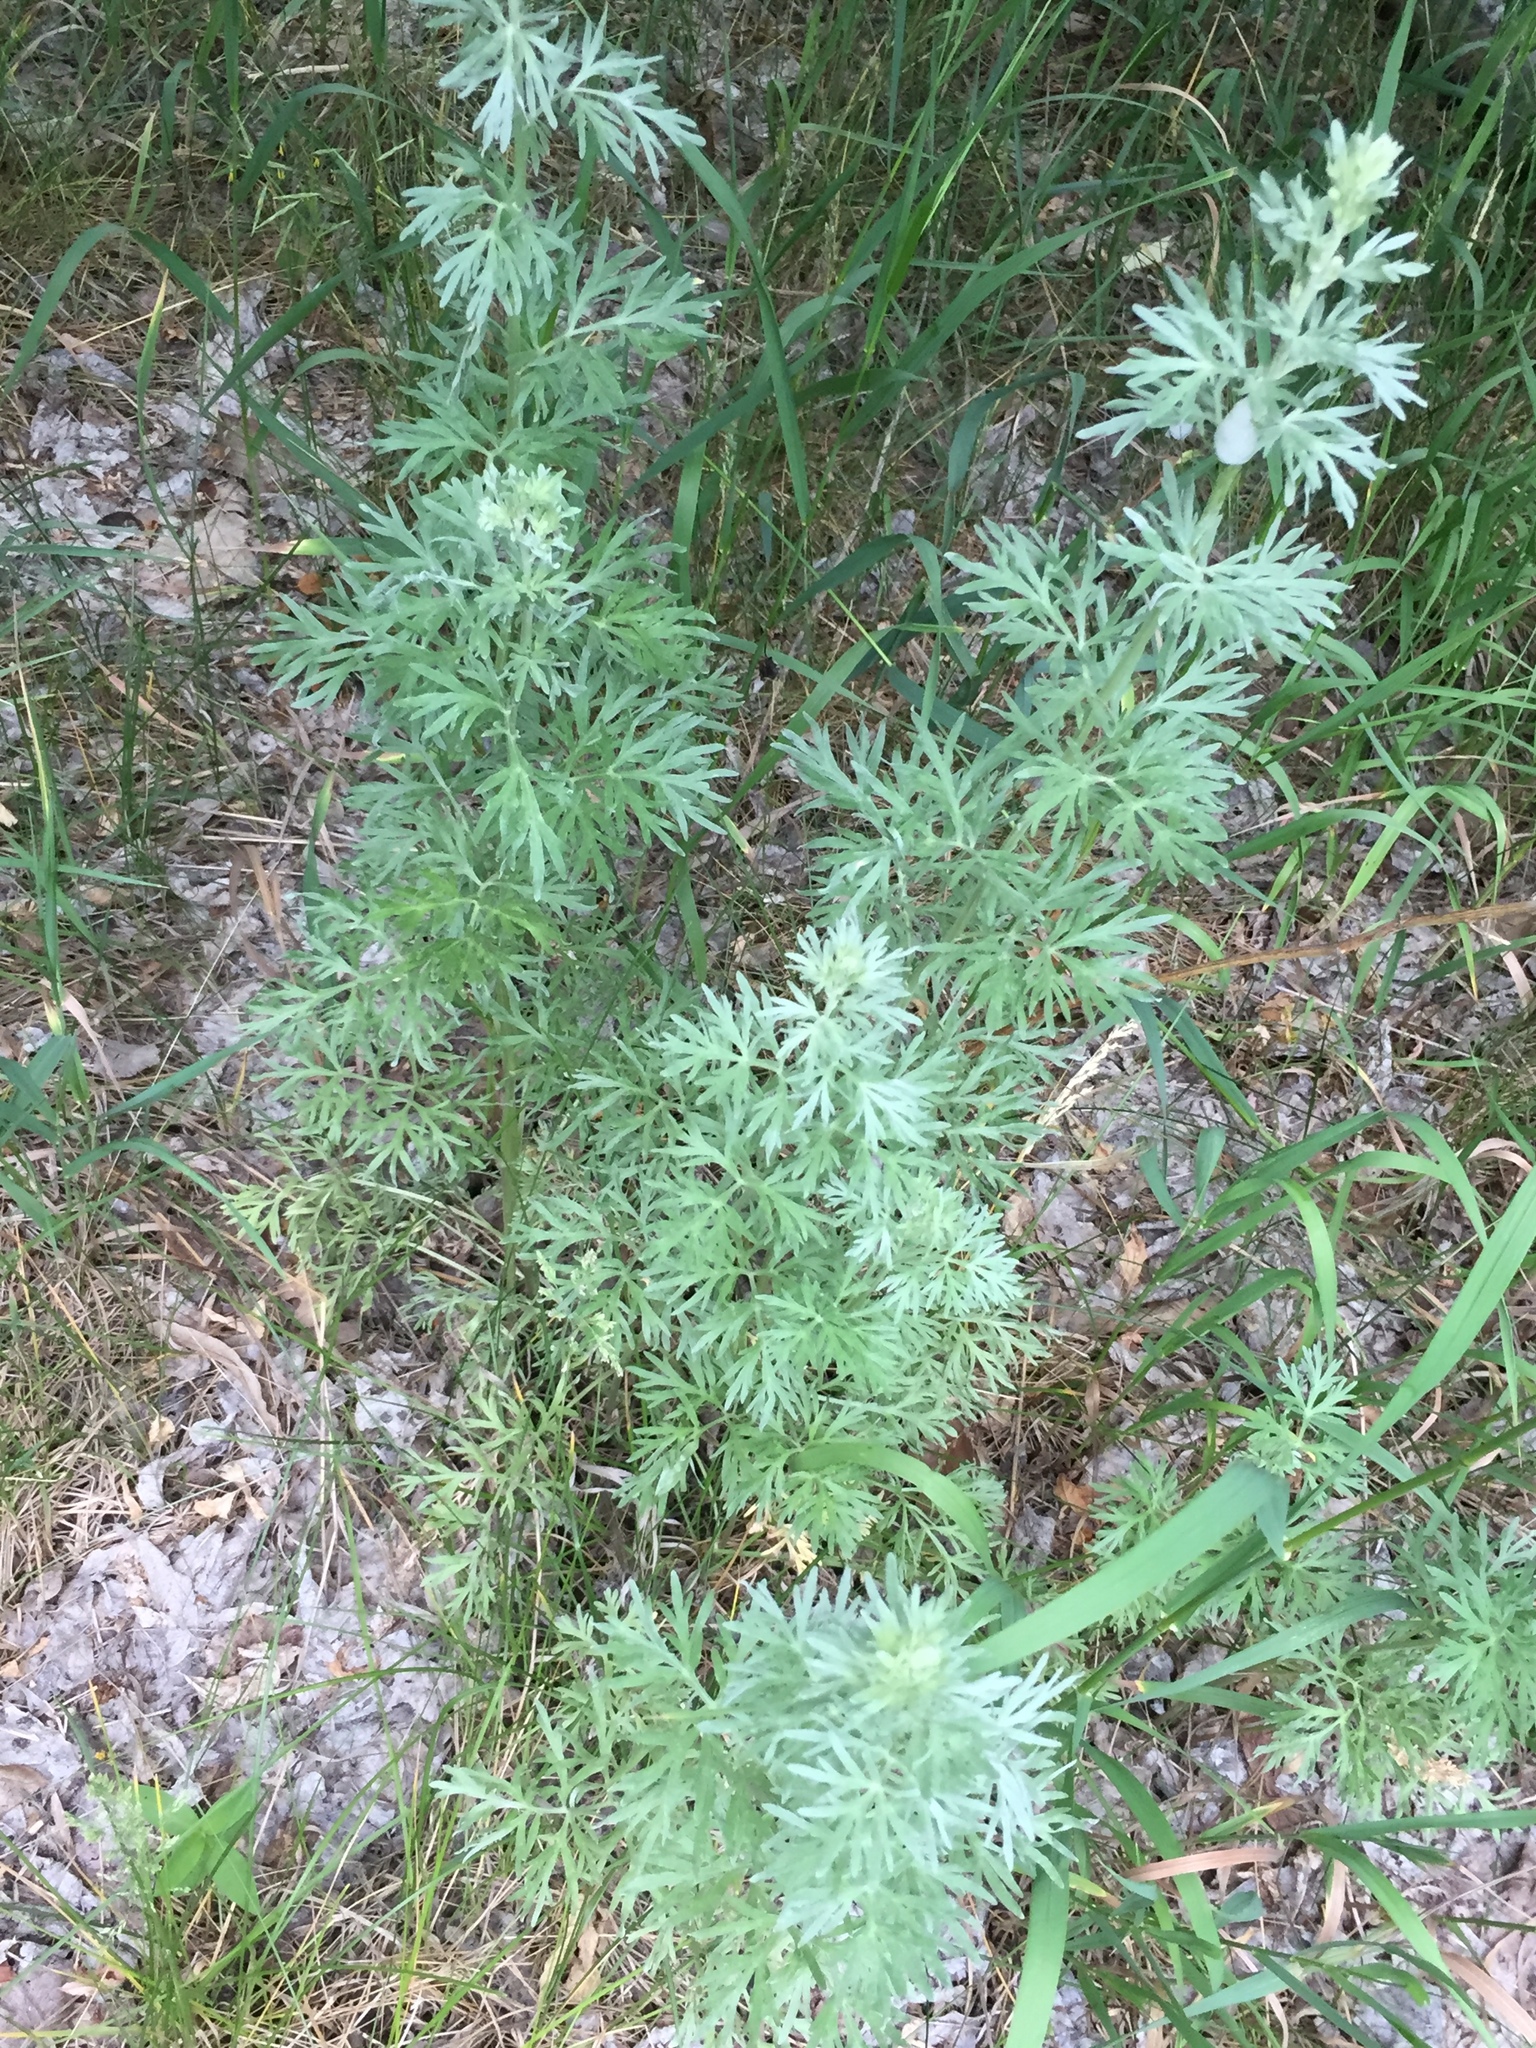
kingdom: Plantae
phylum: Tracheophyta
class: Magnoliopsida
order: Asterales
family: Asteraceae
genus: Artemisia
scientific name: Artemisia absinthium
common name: Wormwood
